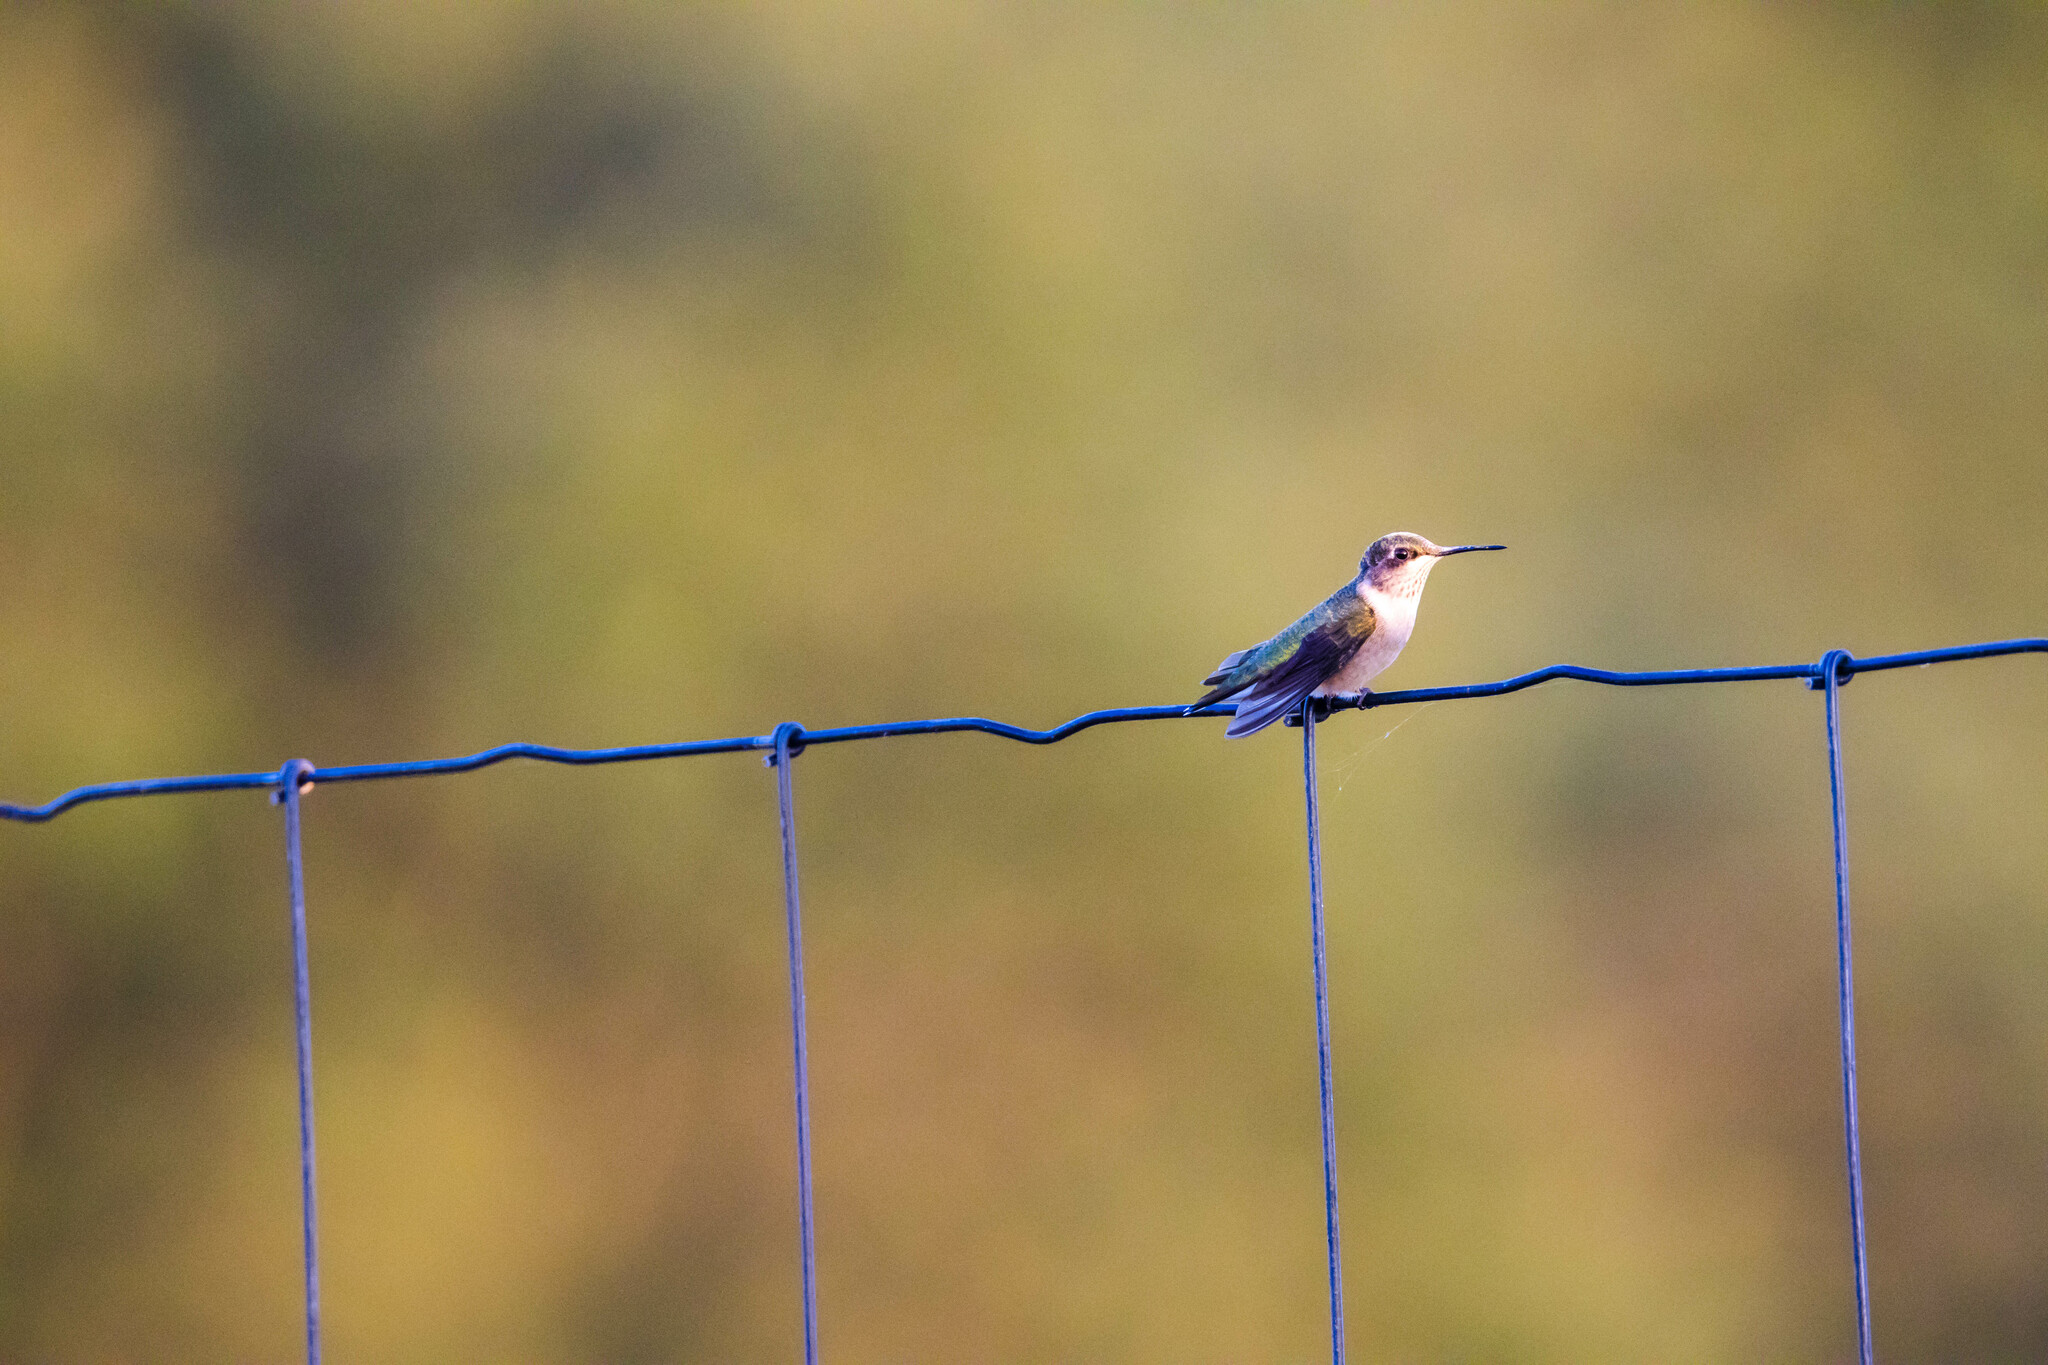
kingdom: Animalia
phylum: Chordata
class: Aves
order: Apodiformes
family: Trochilidae
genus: Archilochus
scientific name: Archilochus colubris
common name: Ruby-throated hummingbird
